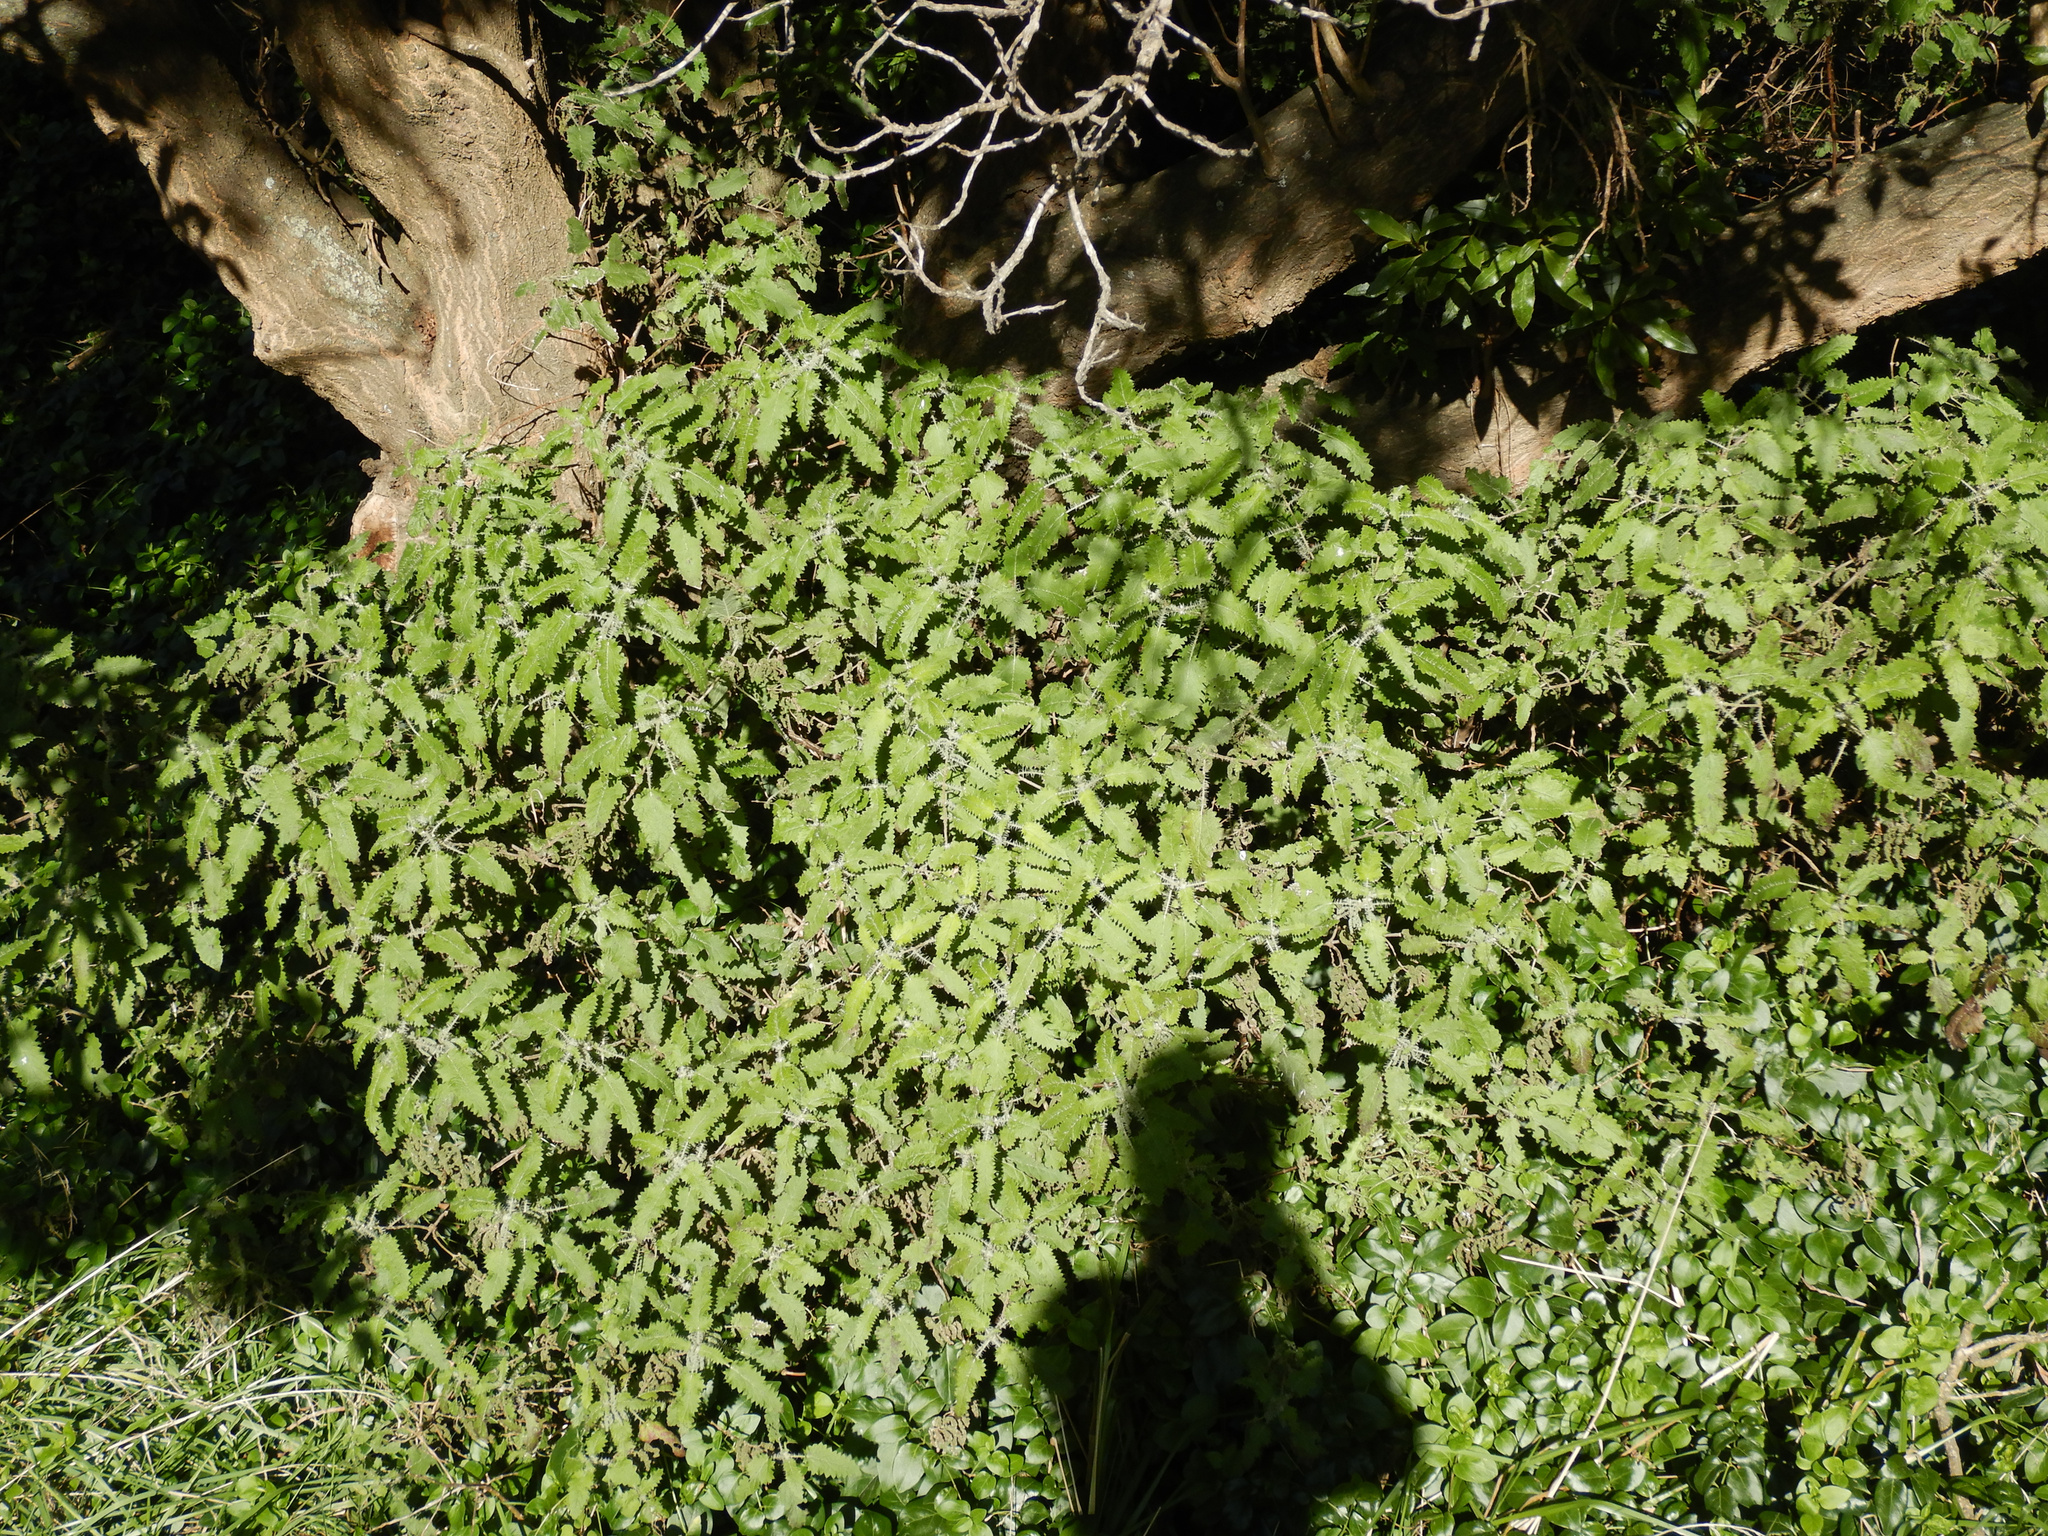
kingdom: Plantae
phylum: Tracheophyta
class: Magnoliopsida
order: Rosales
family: Urticaceae
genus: Urtica
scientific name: Urtica ferox
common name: Tree nettle
